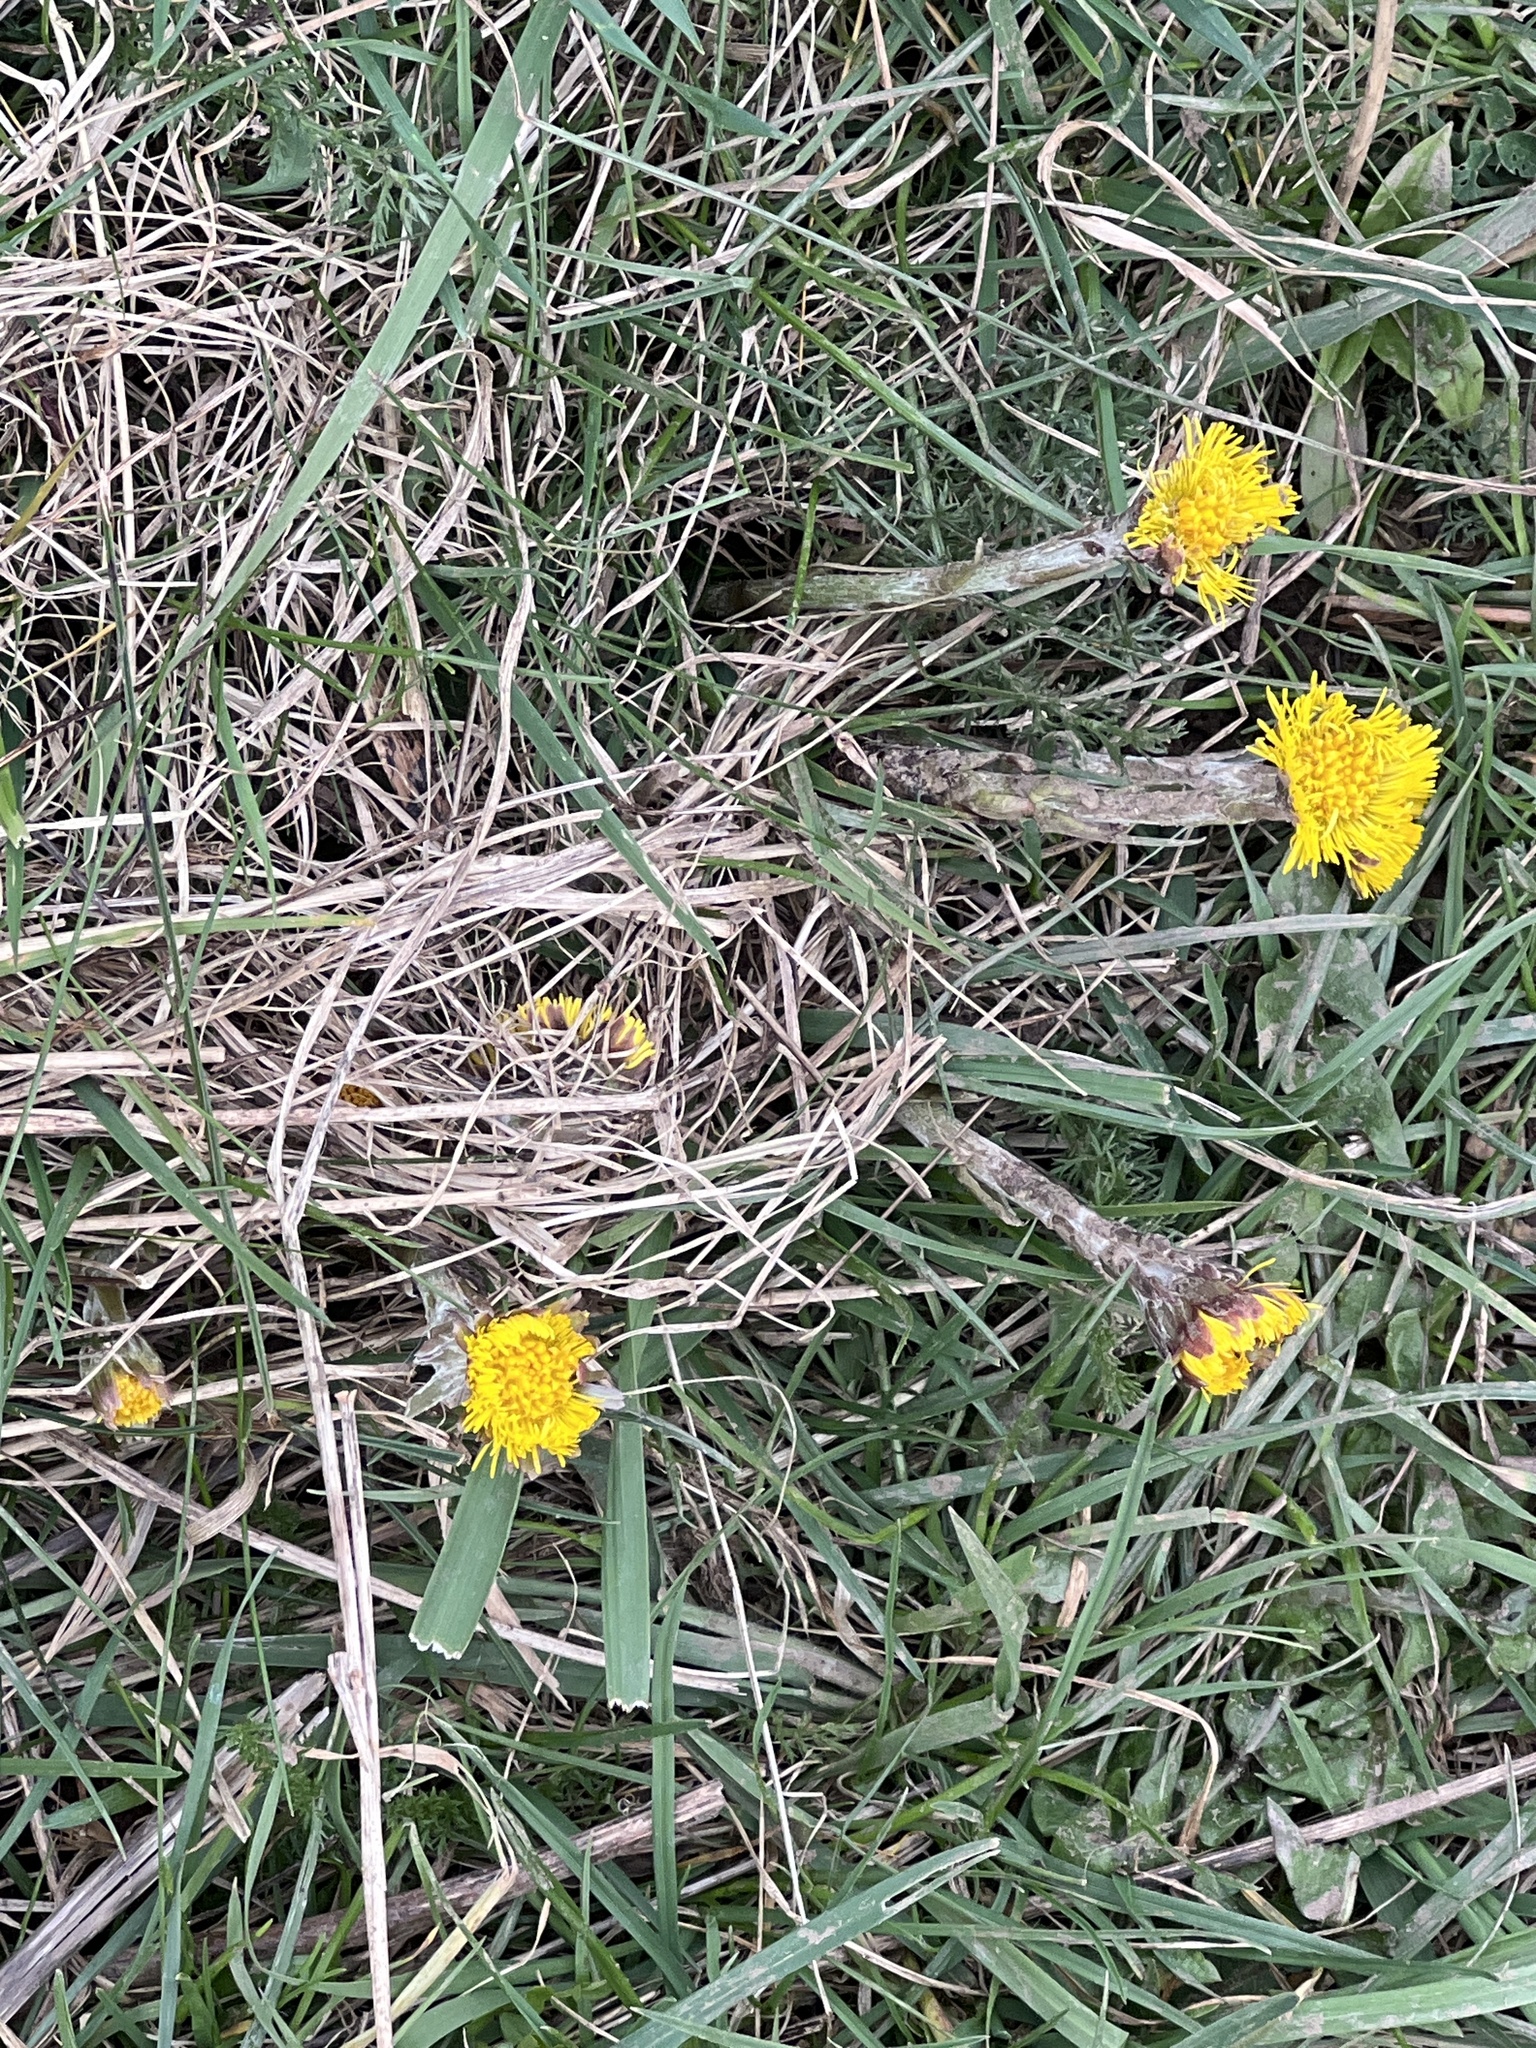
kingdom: Plantae
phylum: Tracheophyta
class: Magnoliopsida
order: Asterales
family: Asteraceae
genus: Tussilago
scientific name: Tussilago farfara
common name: Coltsfoot
